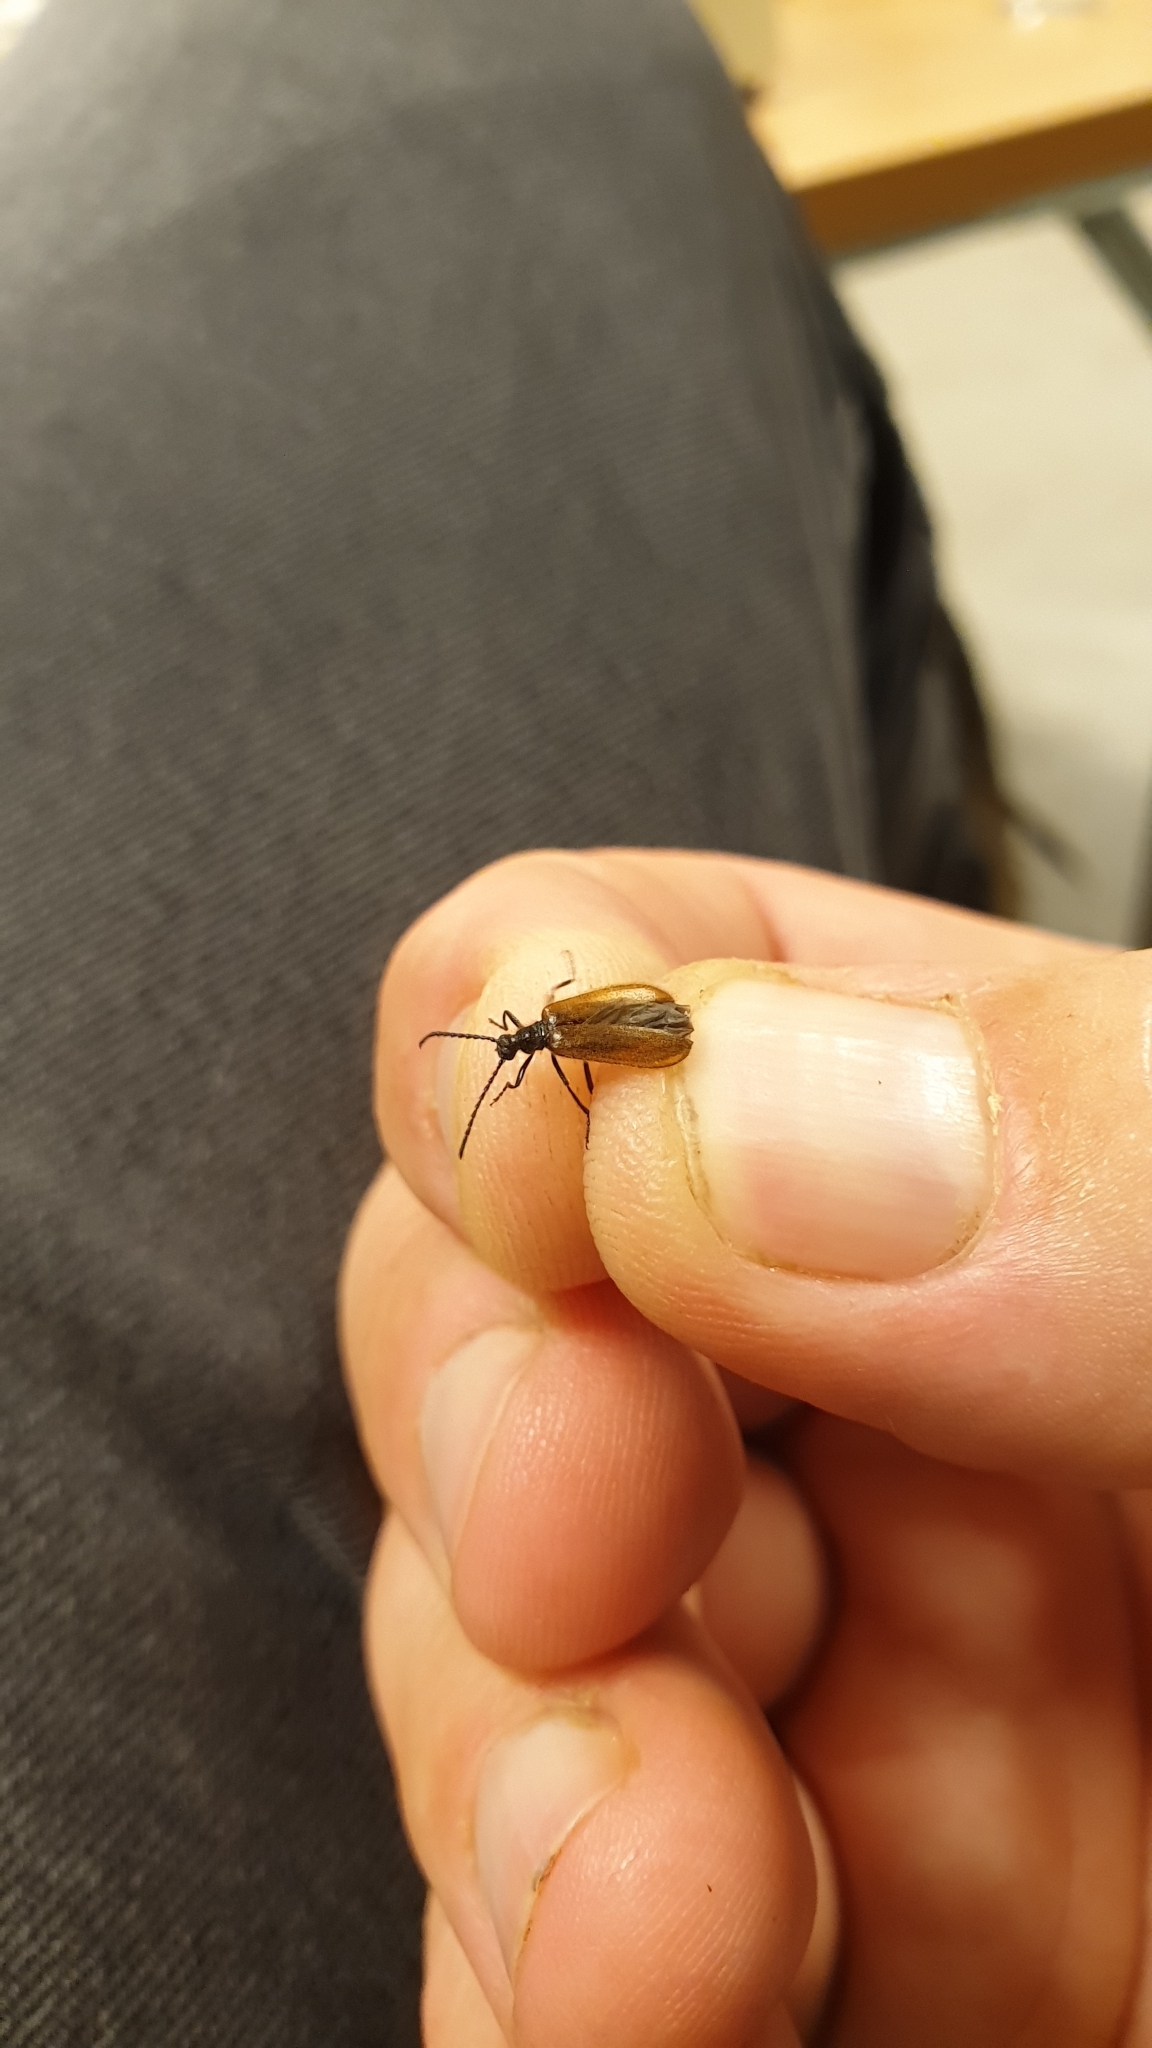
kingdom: Animalia
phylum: Arthropoda
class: Insecta
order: Coleoptera
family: Tenebrionidae
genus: Lagria
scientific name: Lagria hirta
